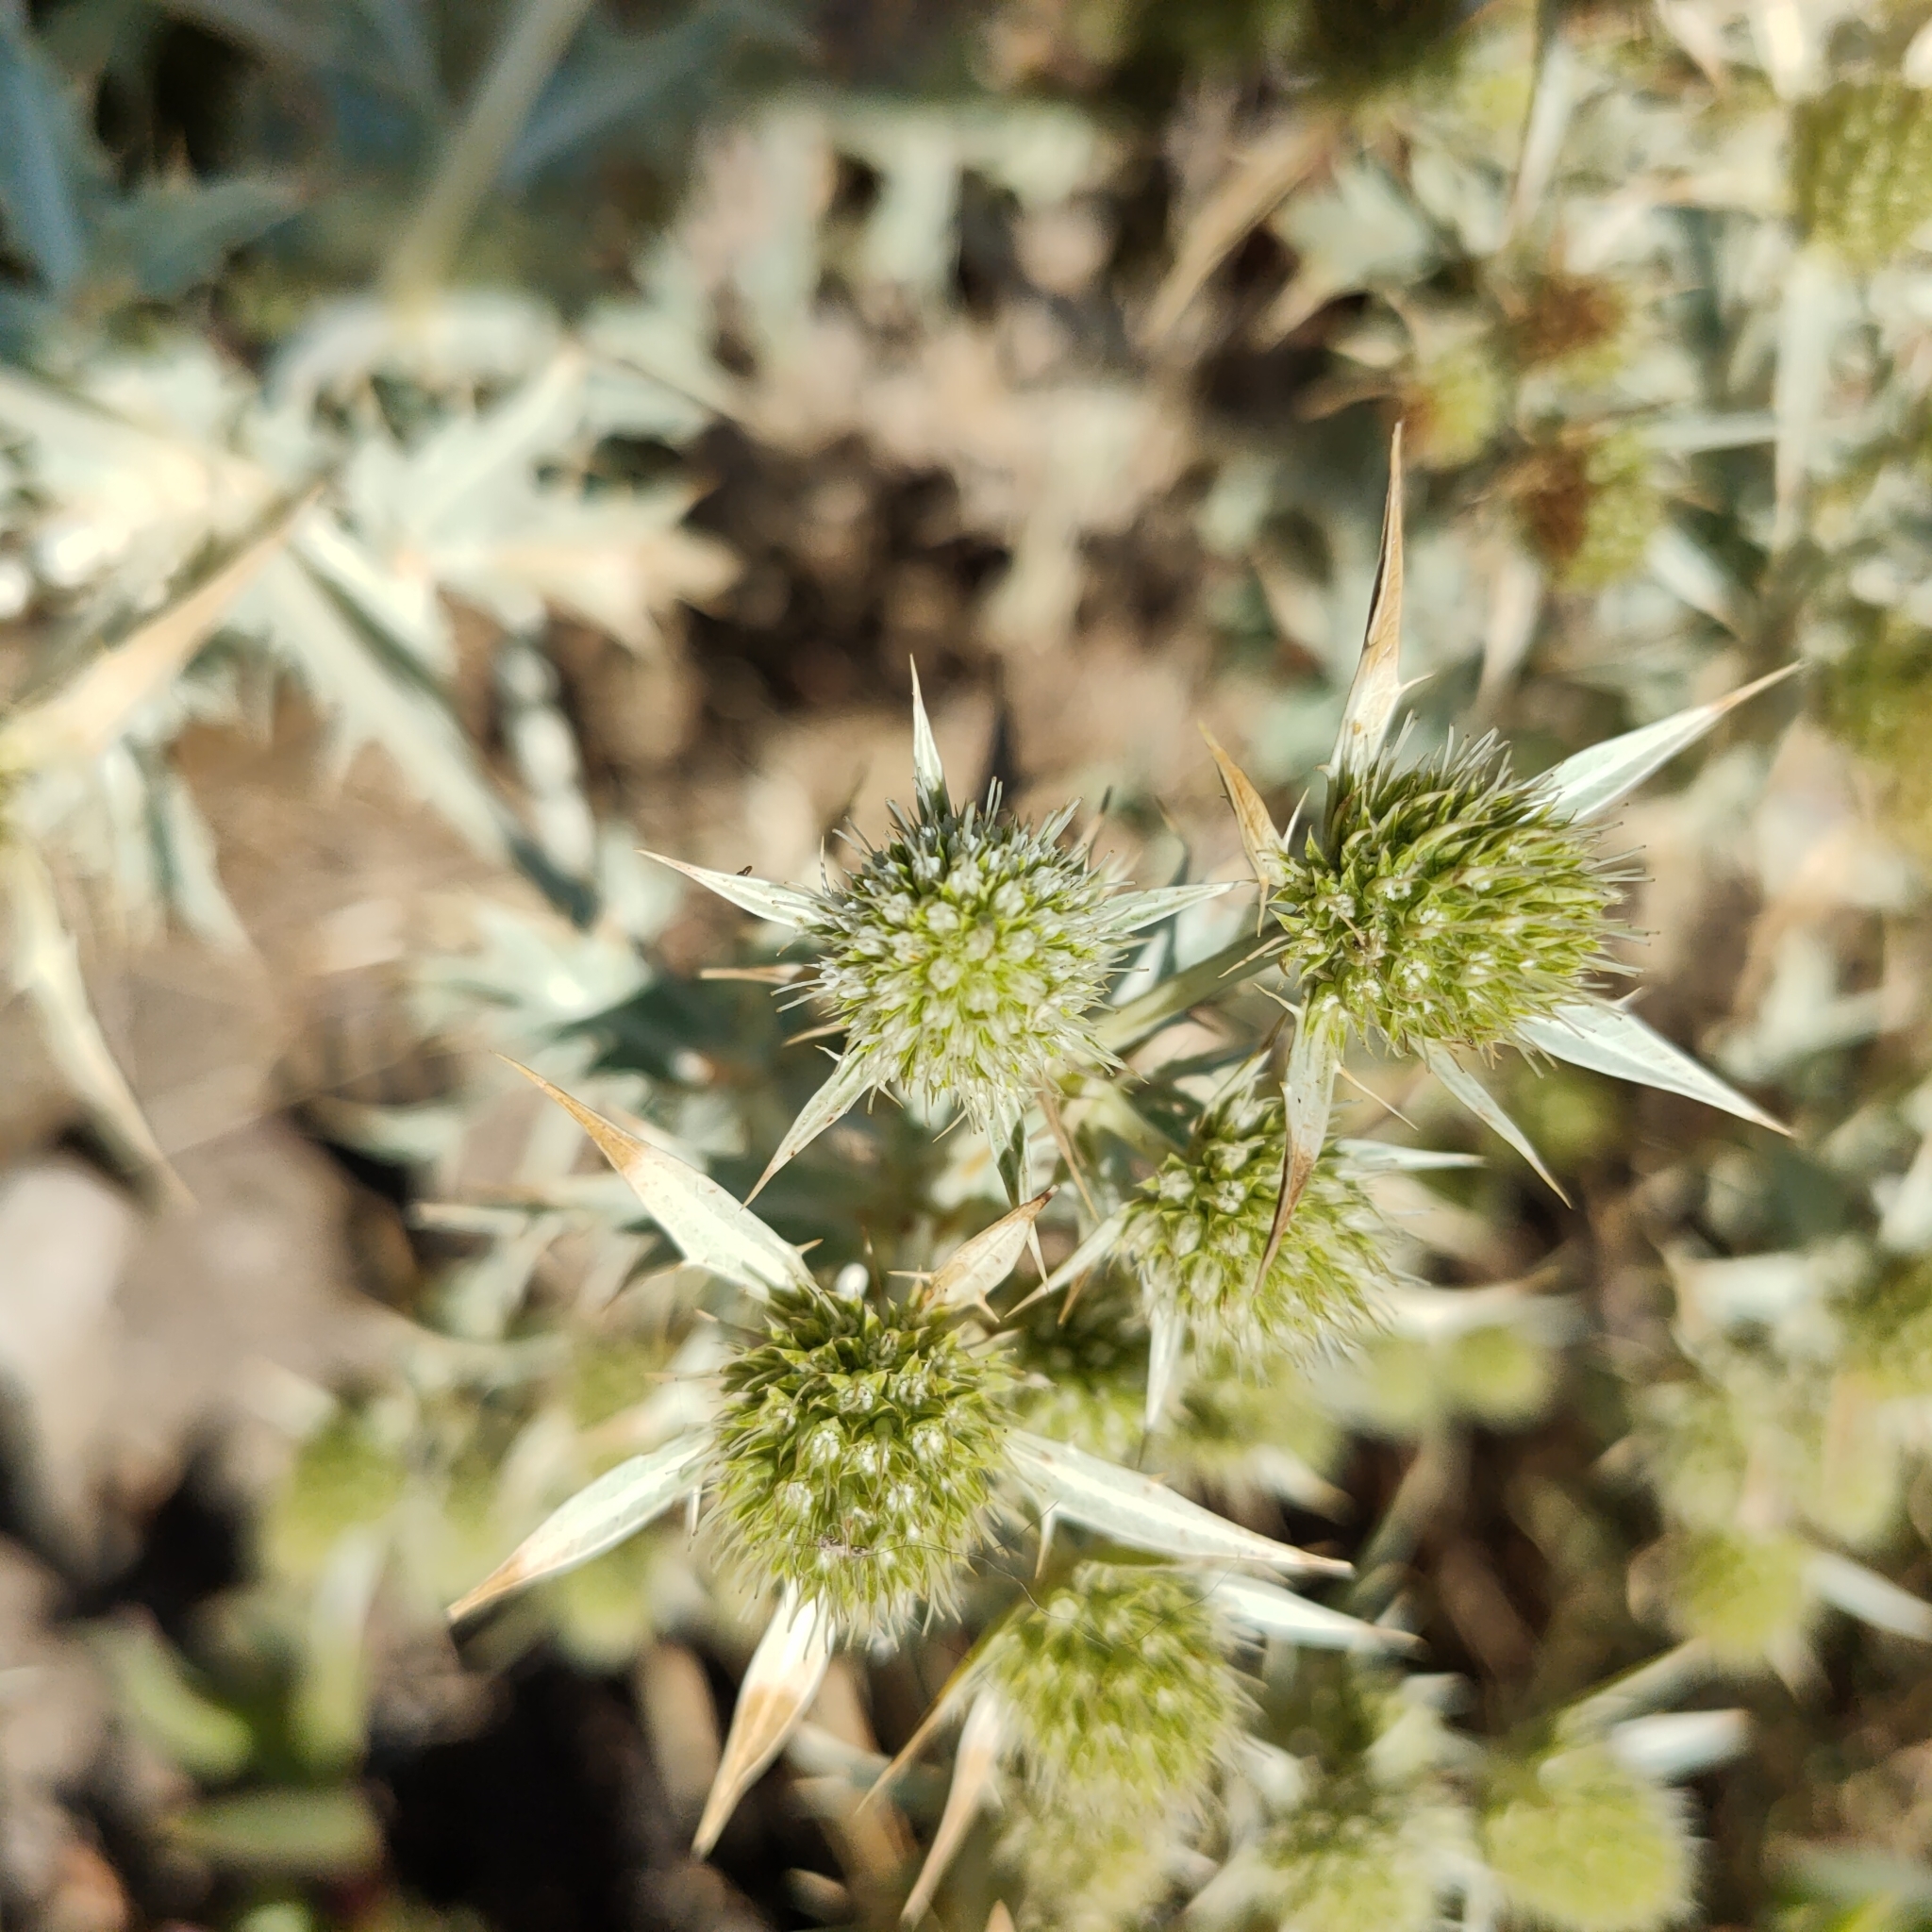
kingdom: Plantae
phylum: Tracheophyta
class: Magnoliopsida
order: Apiales
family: Apiaceae
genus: Eryngium
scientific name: Eryngium campestre
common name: Field eryngo
